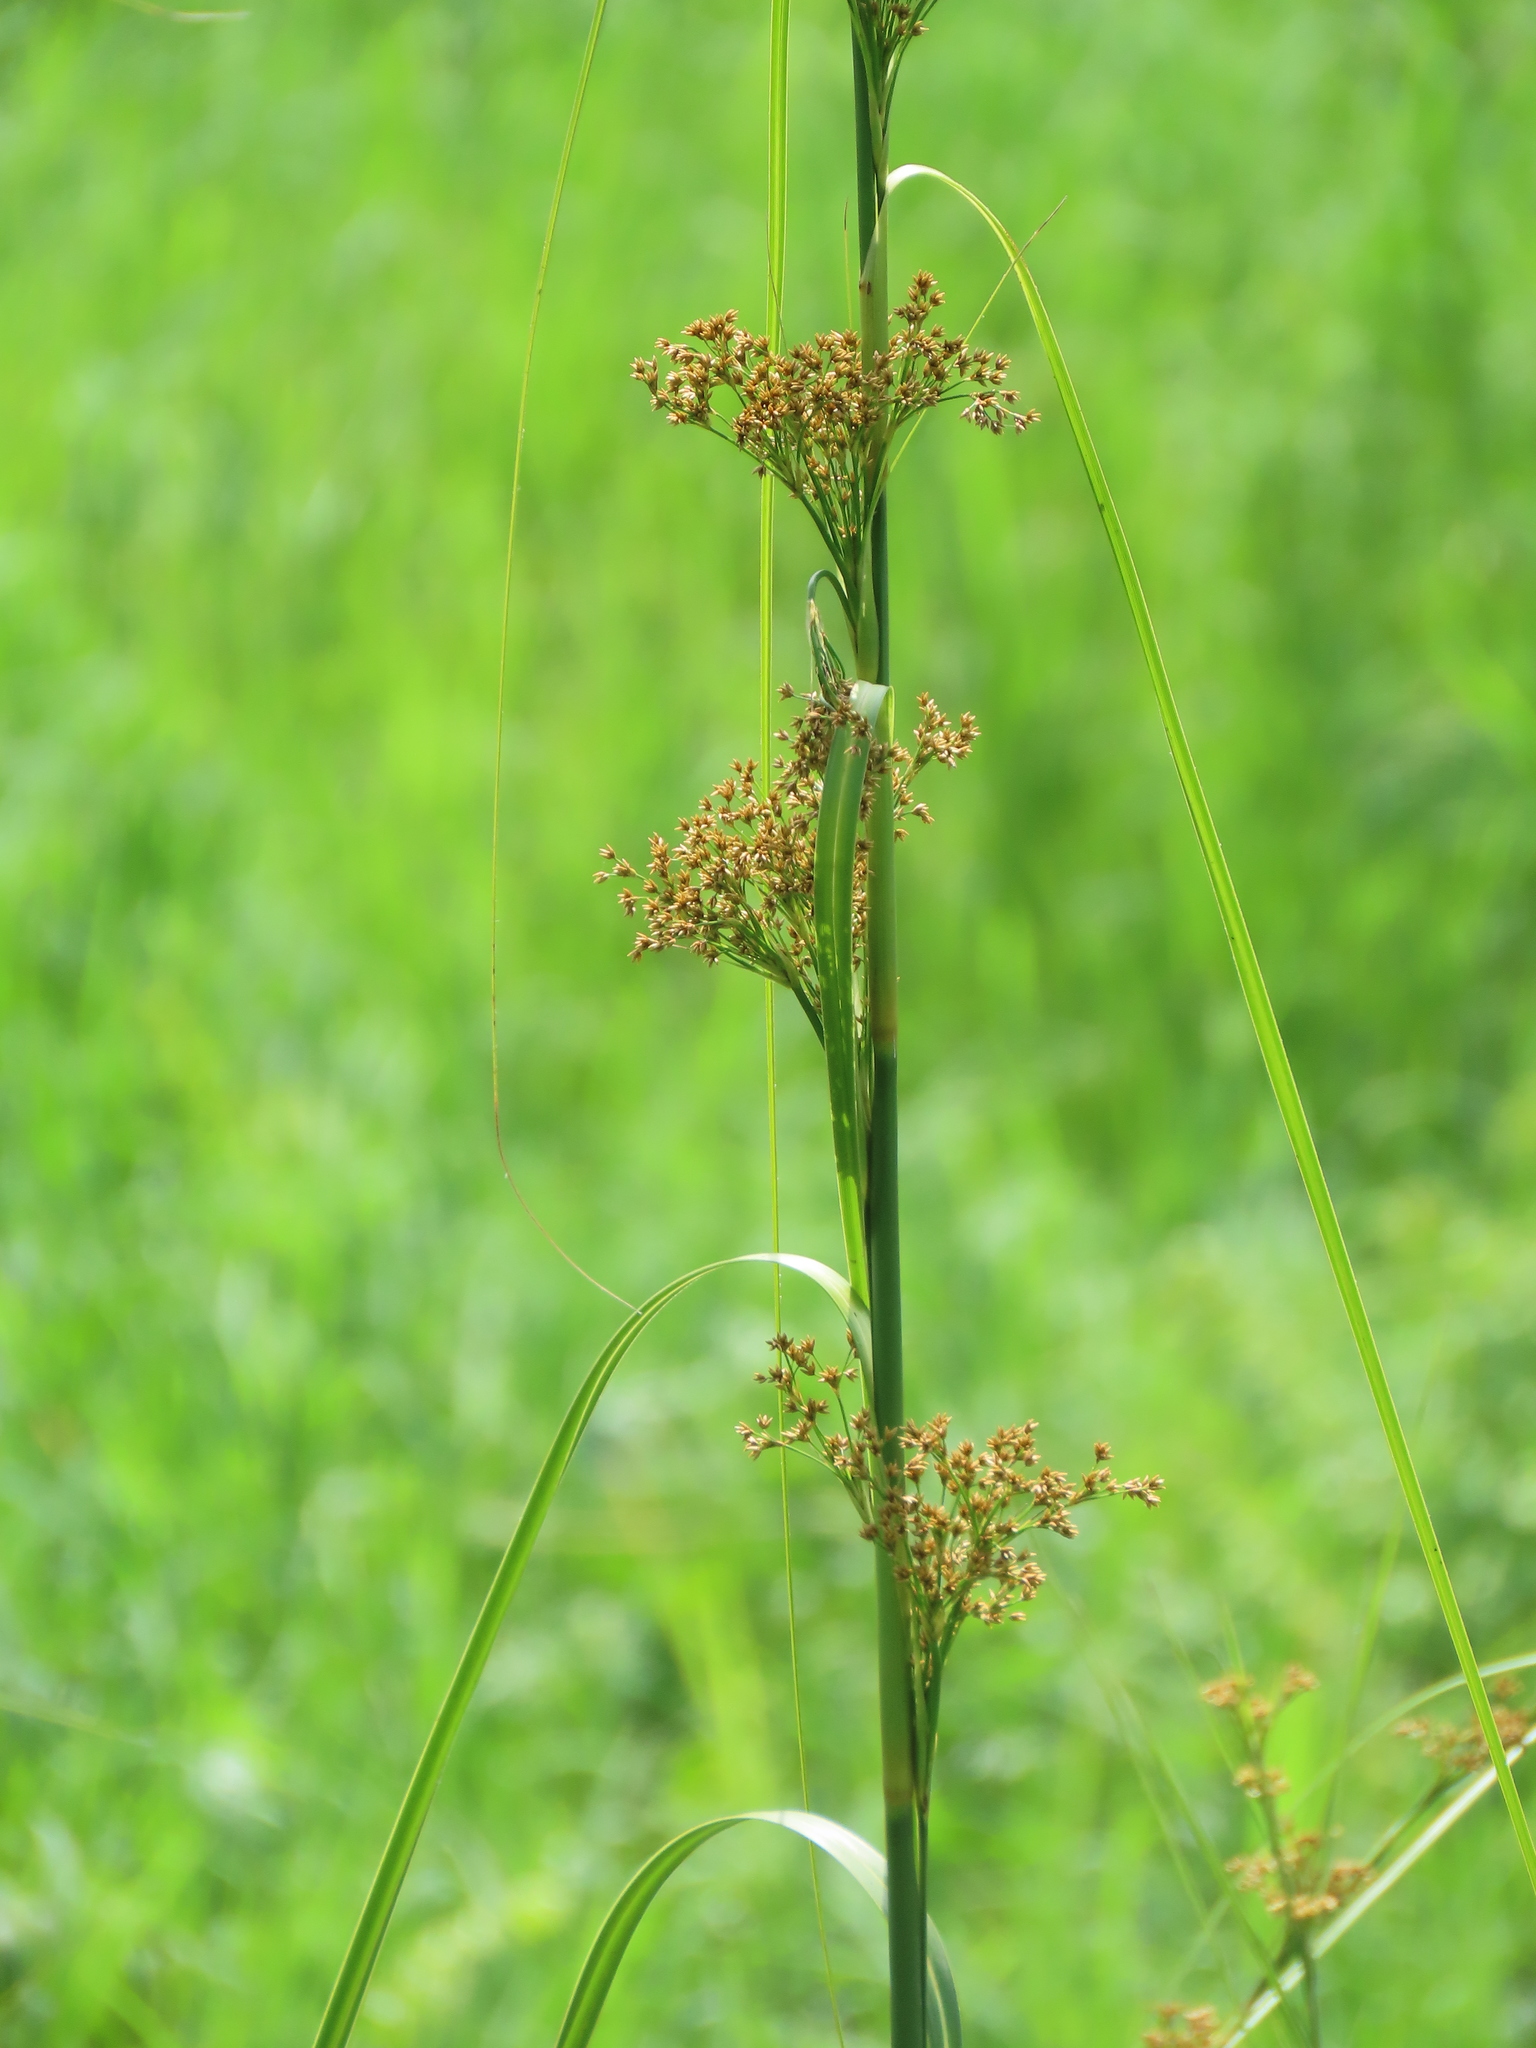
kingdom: Plantae
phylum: Tracheophyta
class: Liliopsida
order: Poales
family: Cyperaceae
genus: Cladium
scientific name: Cladium mariscus
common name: Great fen-sedge
